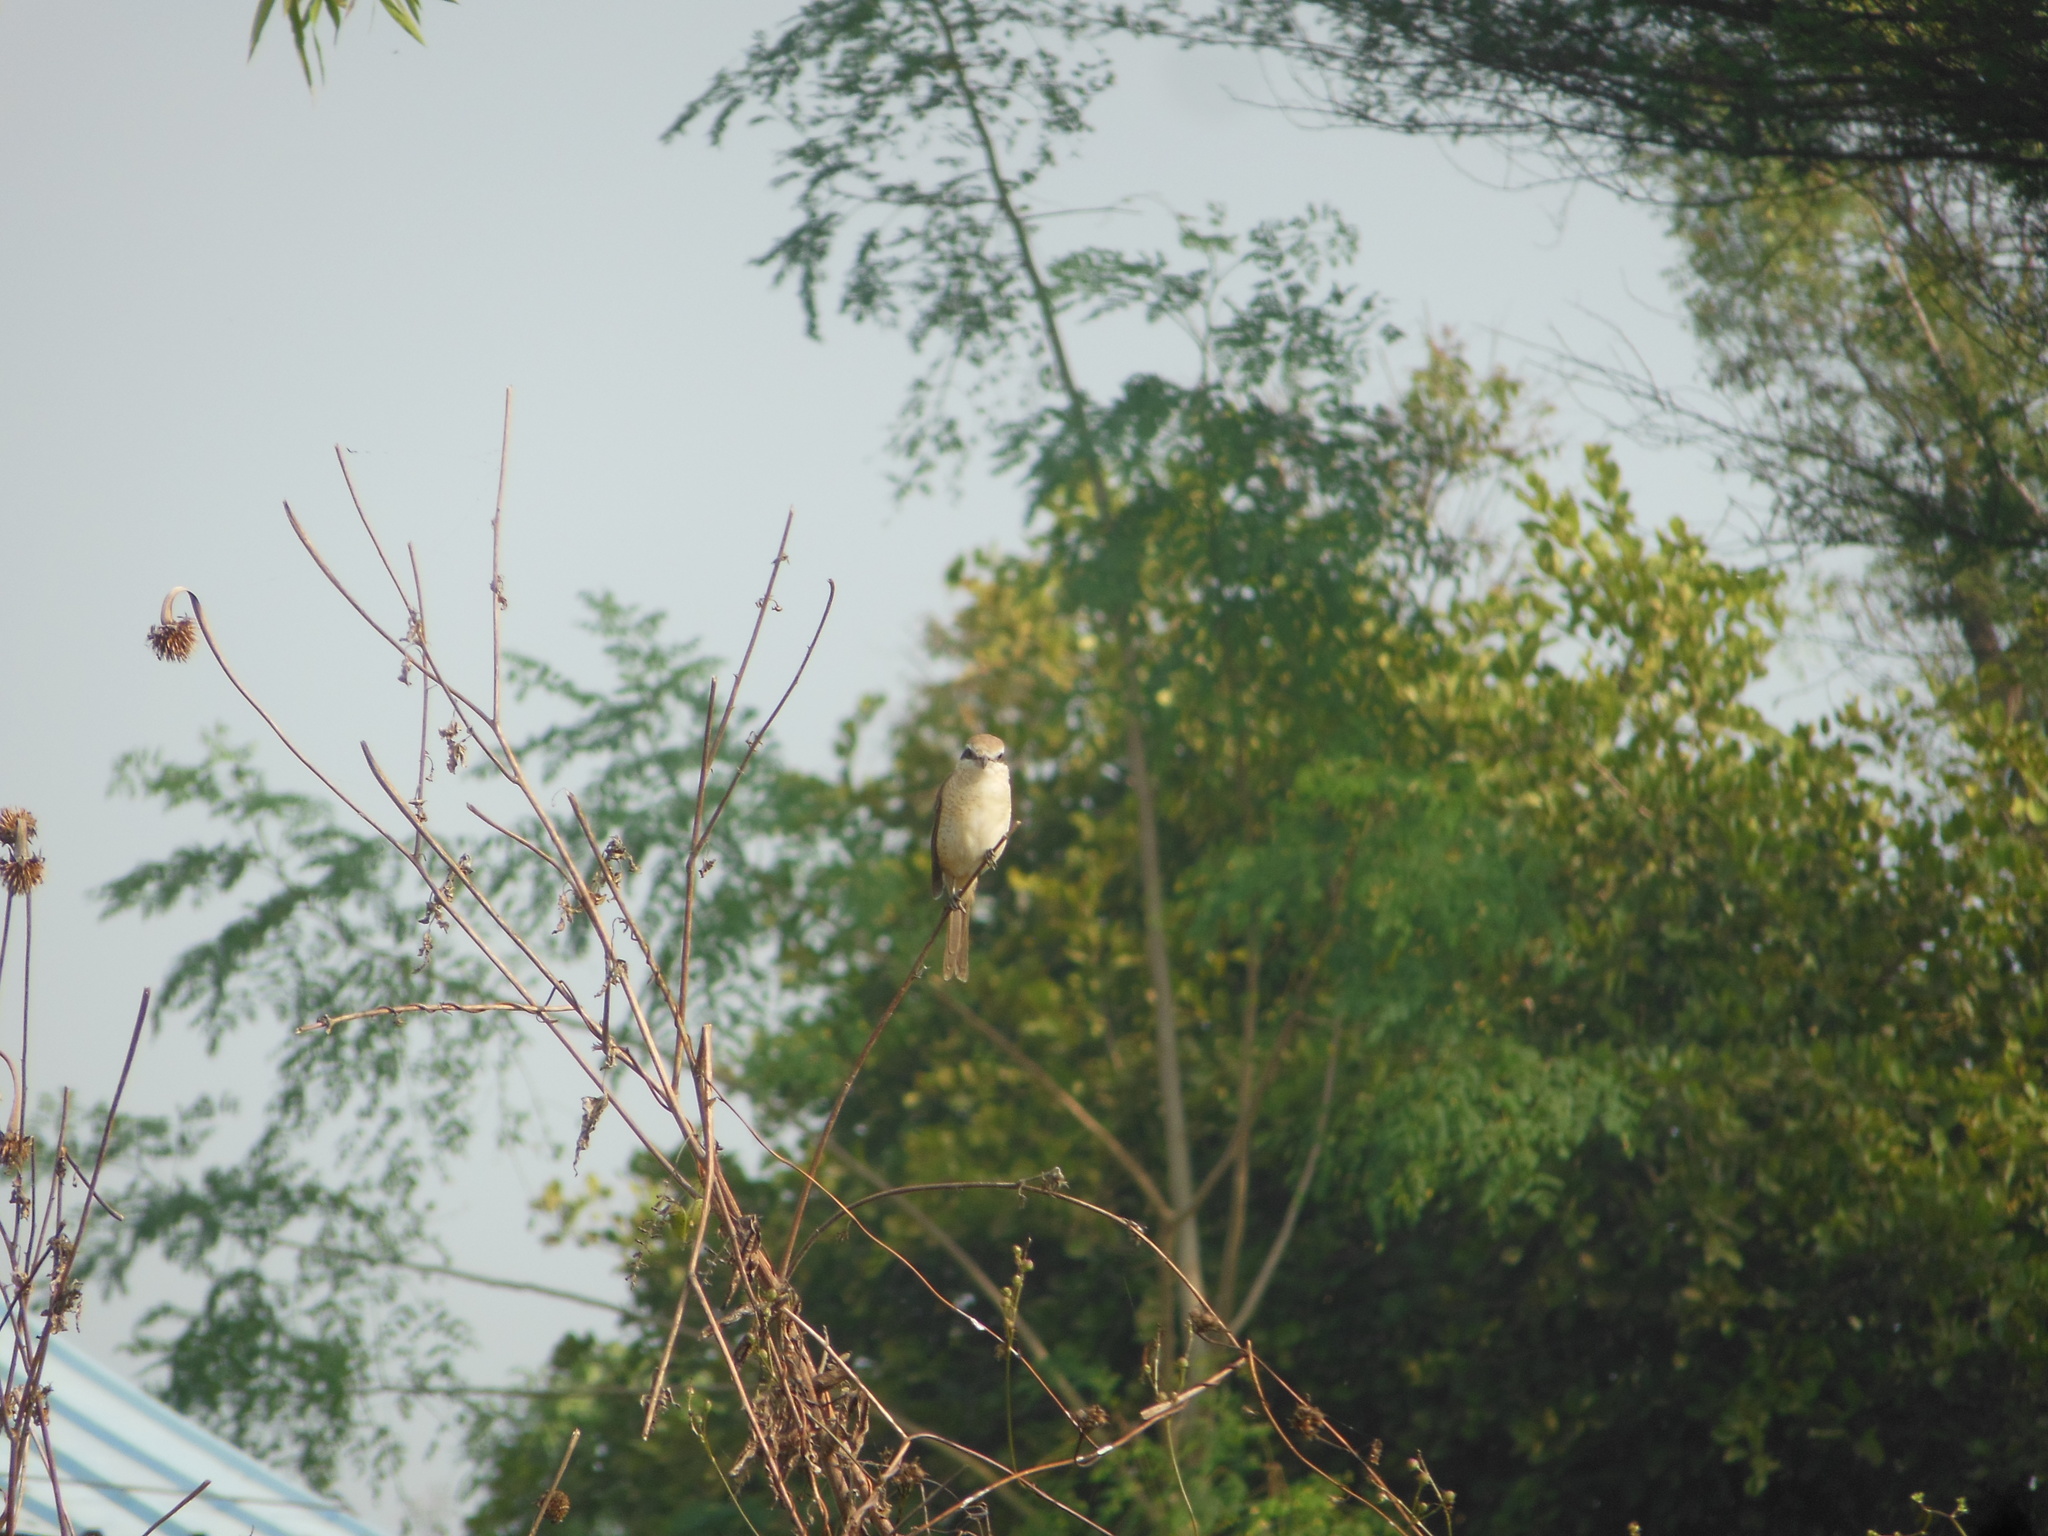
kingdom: Animalia
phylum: Chordata
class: Aves
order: Passeriformes
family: Laniidae
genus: Lanius
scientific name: Lanius cristatus
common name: Brown shrike
